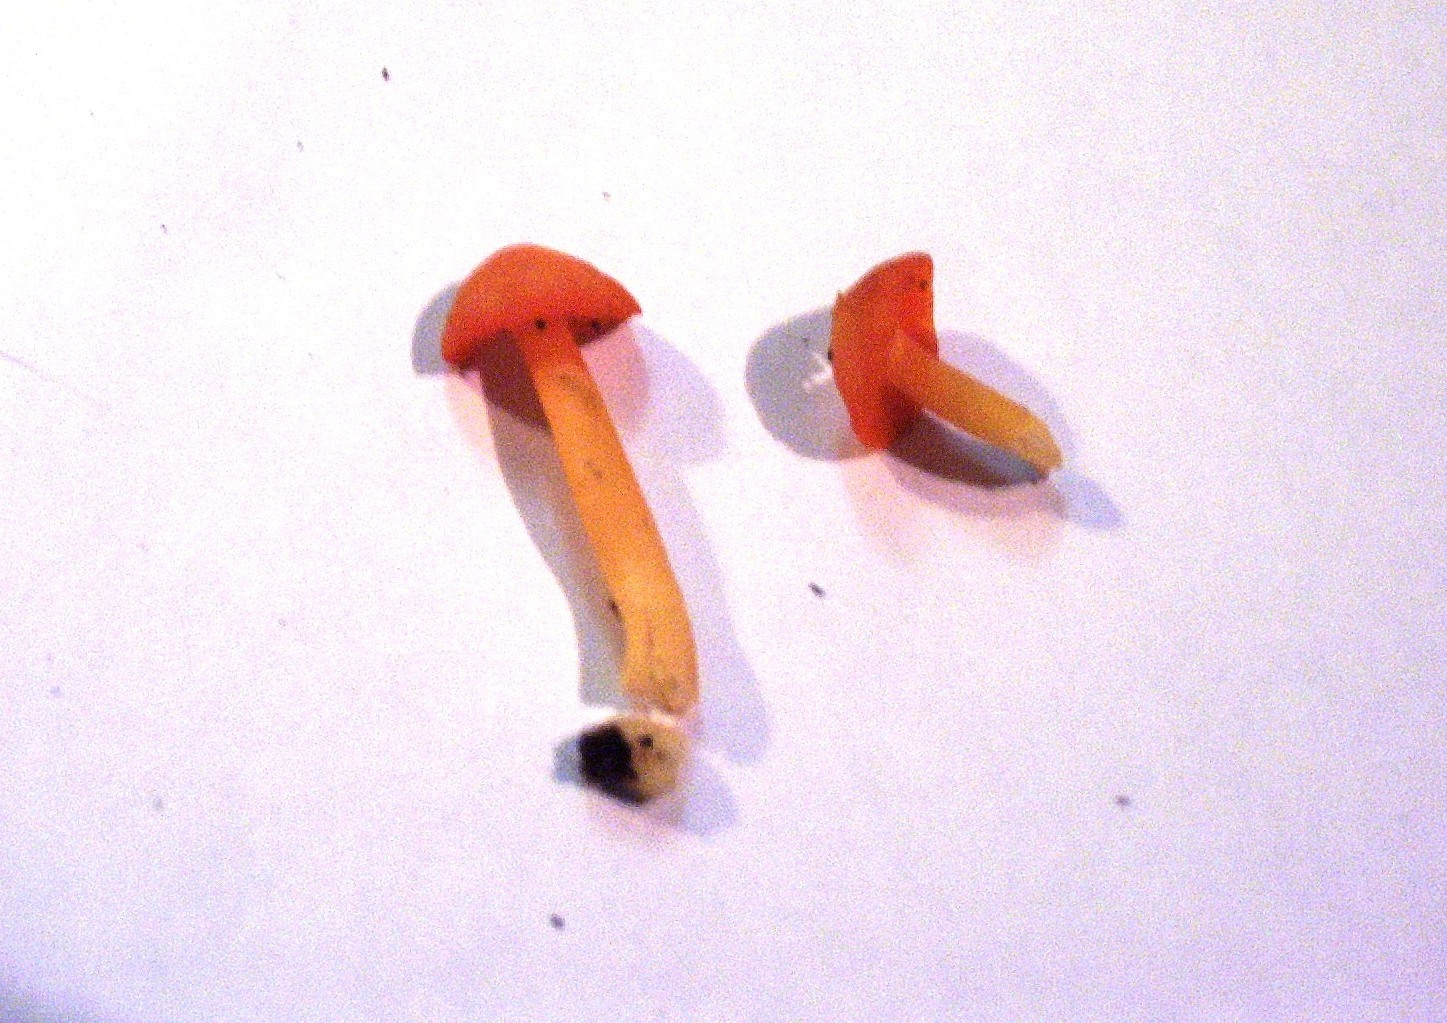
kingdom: Fungi
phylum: Basidiomycota
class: Agaricomycetes
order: Agaricales
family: Hygrophoraceae
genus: Humidicutis
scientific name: Humidicutis marginata
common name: Orange gilled waxcap
